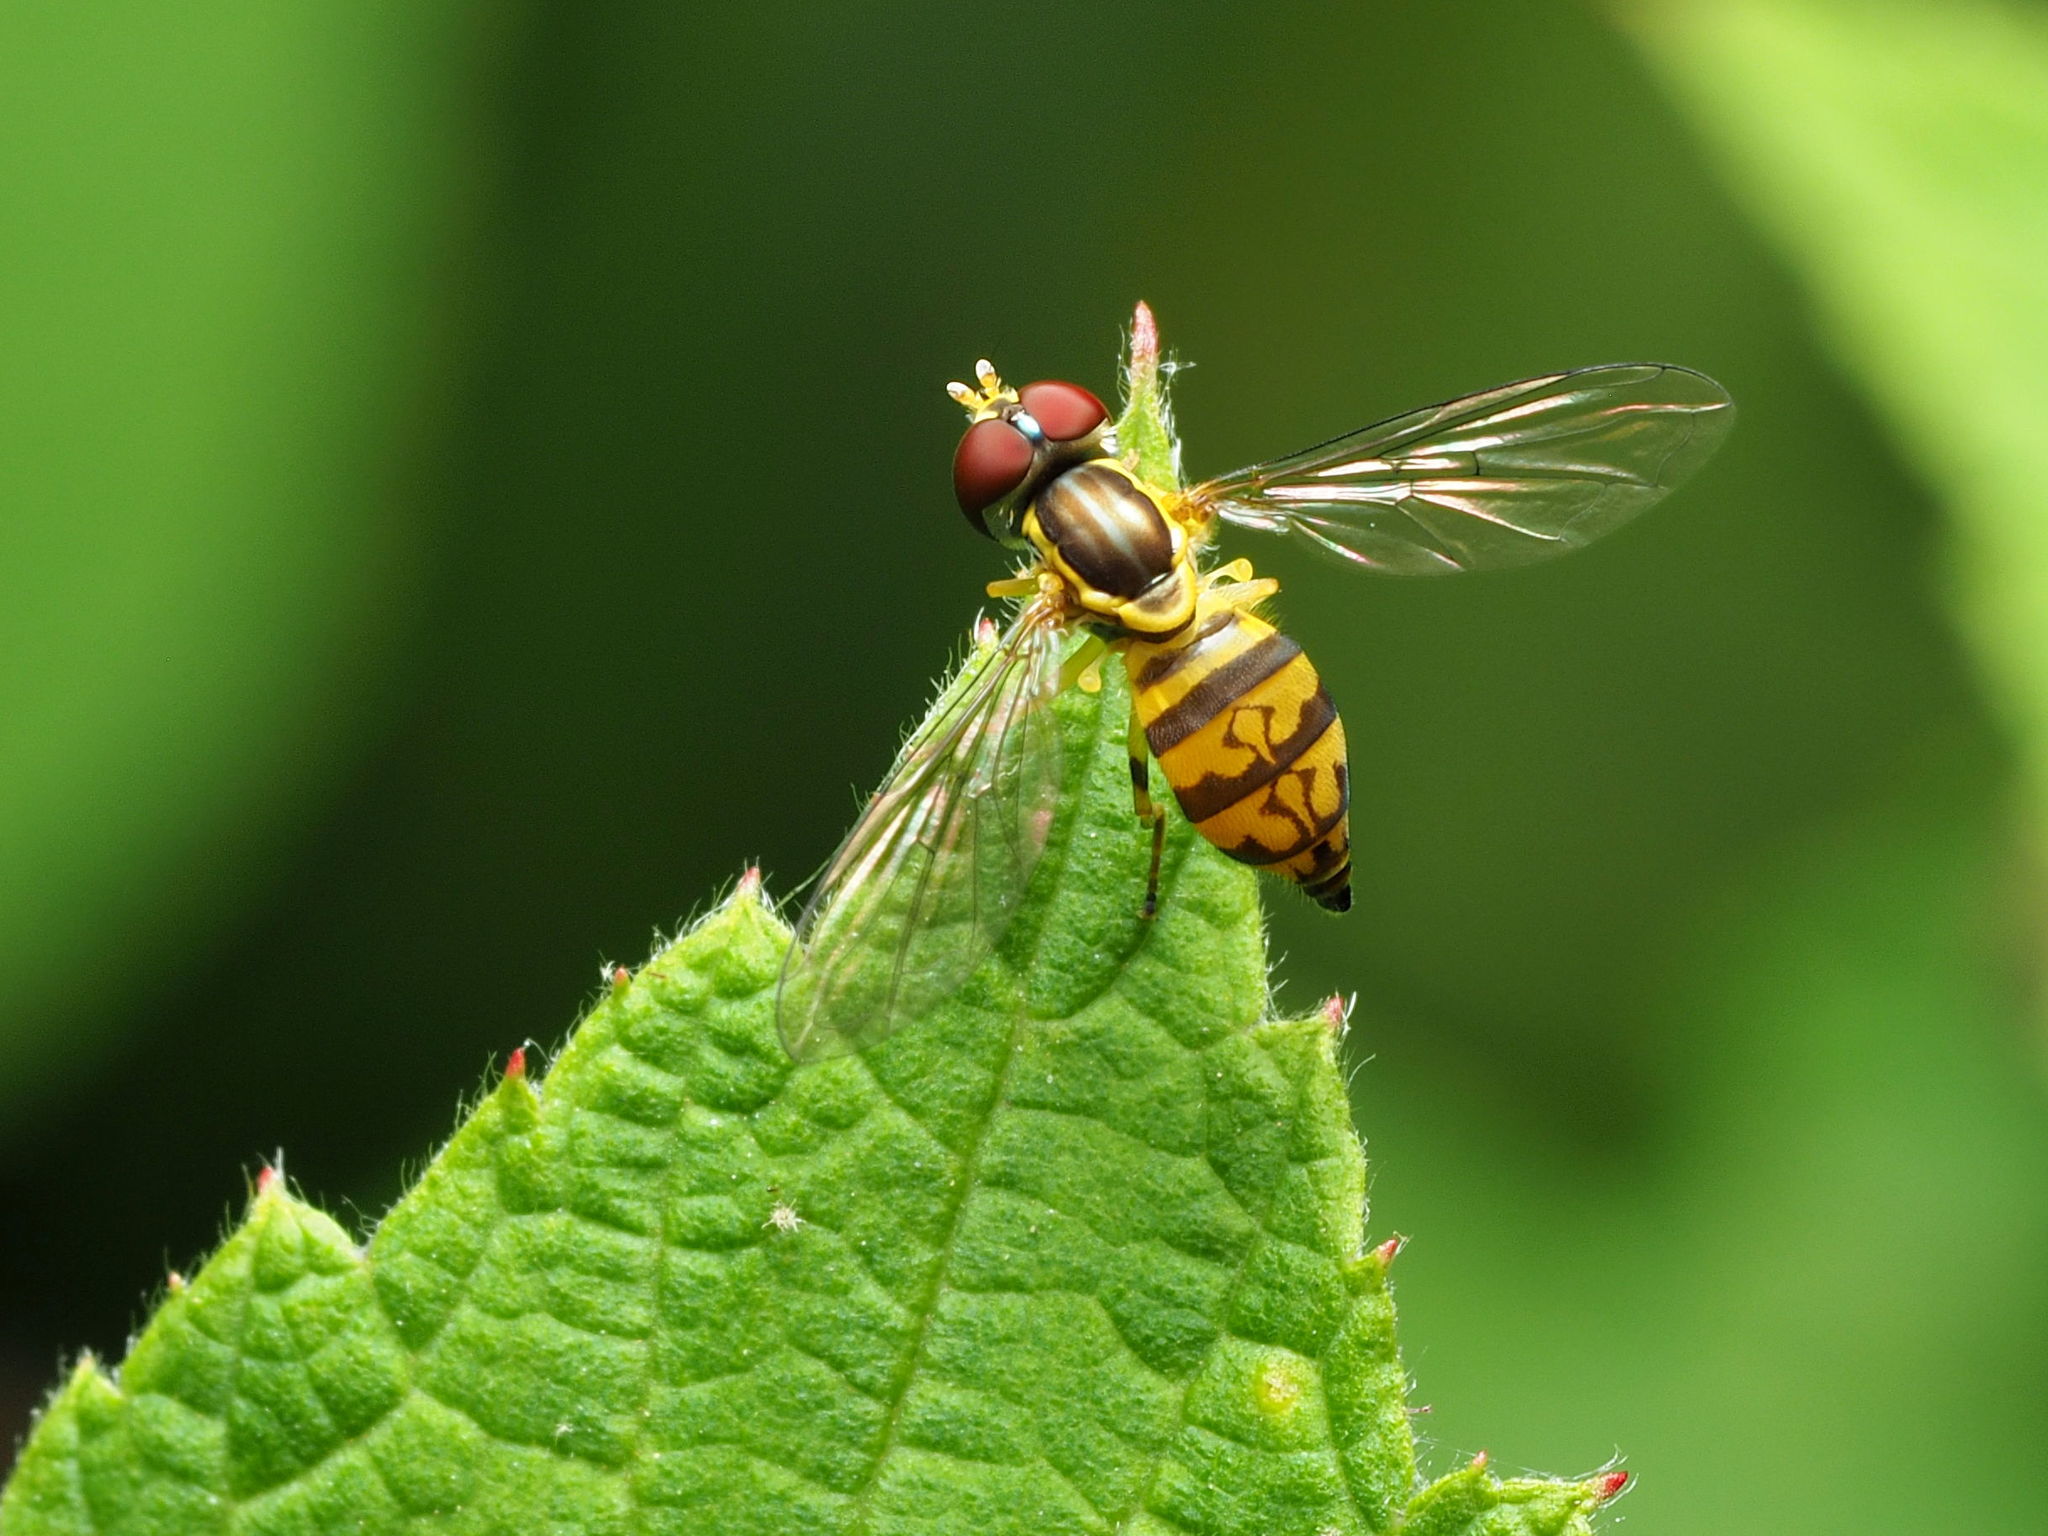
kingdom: Animalia
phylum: Arthropoda
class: Insecta
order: Diptera
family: Syrphidae
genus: Toxomerus
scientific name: Toxomerus geminatus
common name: Eastern calligrapher
